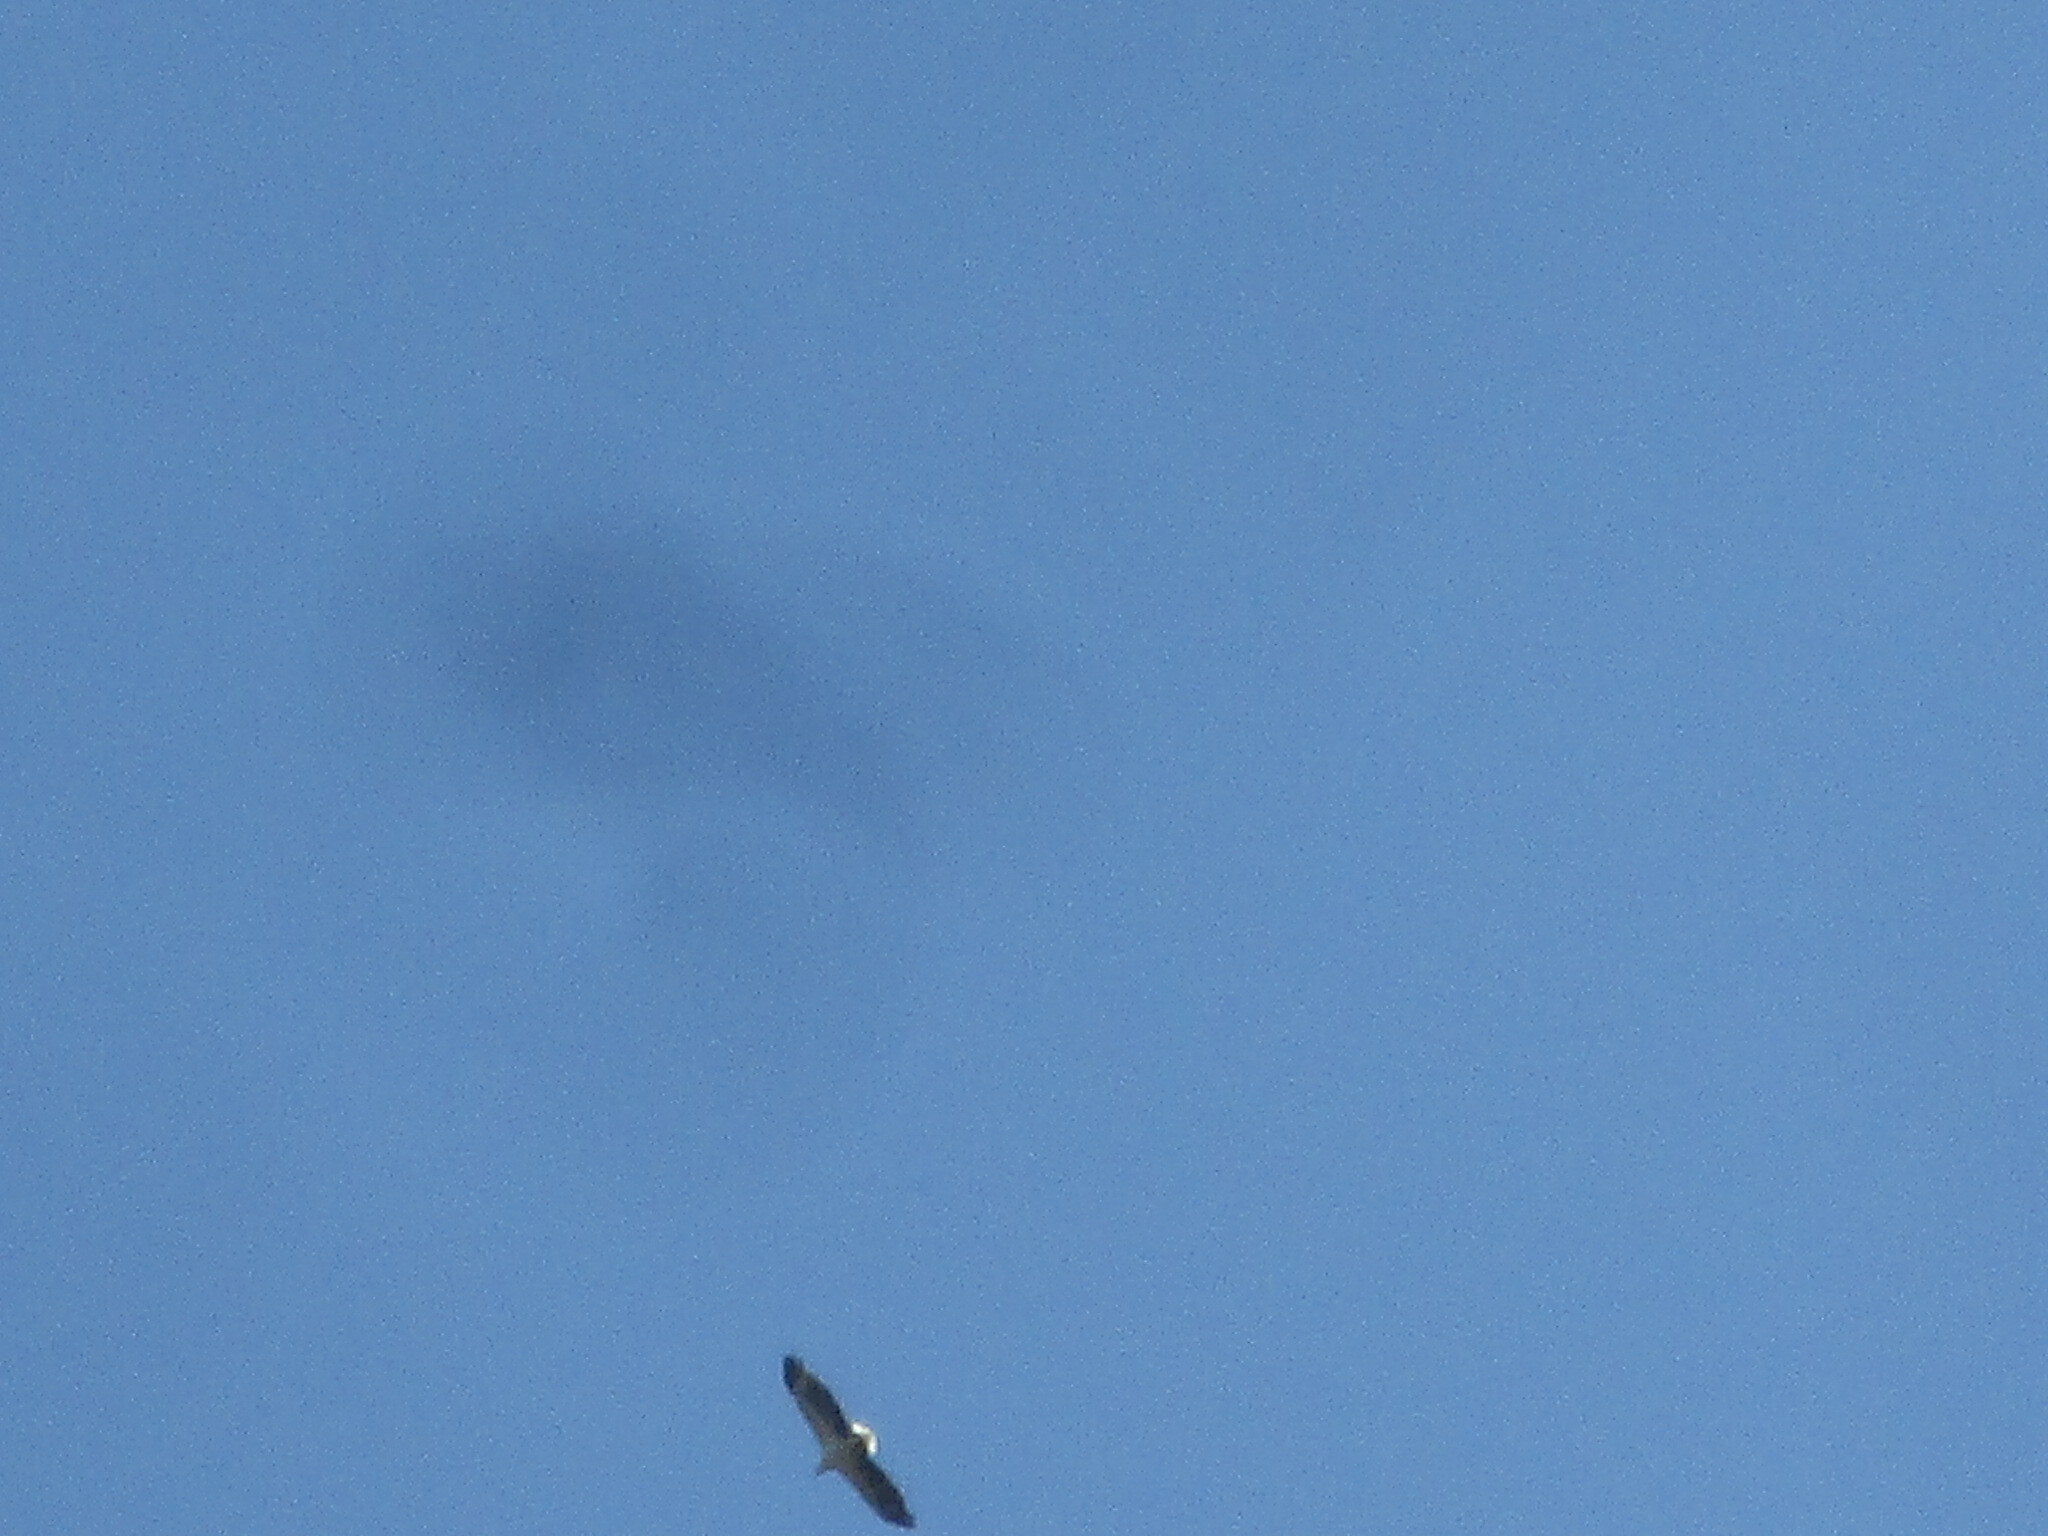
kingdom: Animalia
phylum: Chordata
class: Aves
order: Accipitriformes
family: Accipitridae
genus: Haliaeetus
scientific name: Haliaeetus leucogaster
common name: White-bellied sea eagle
